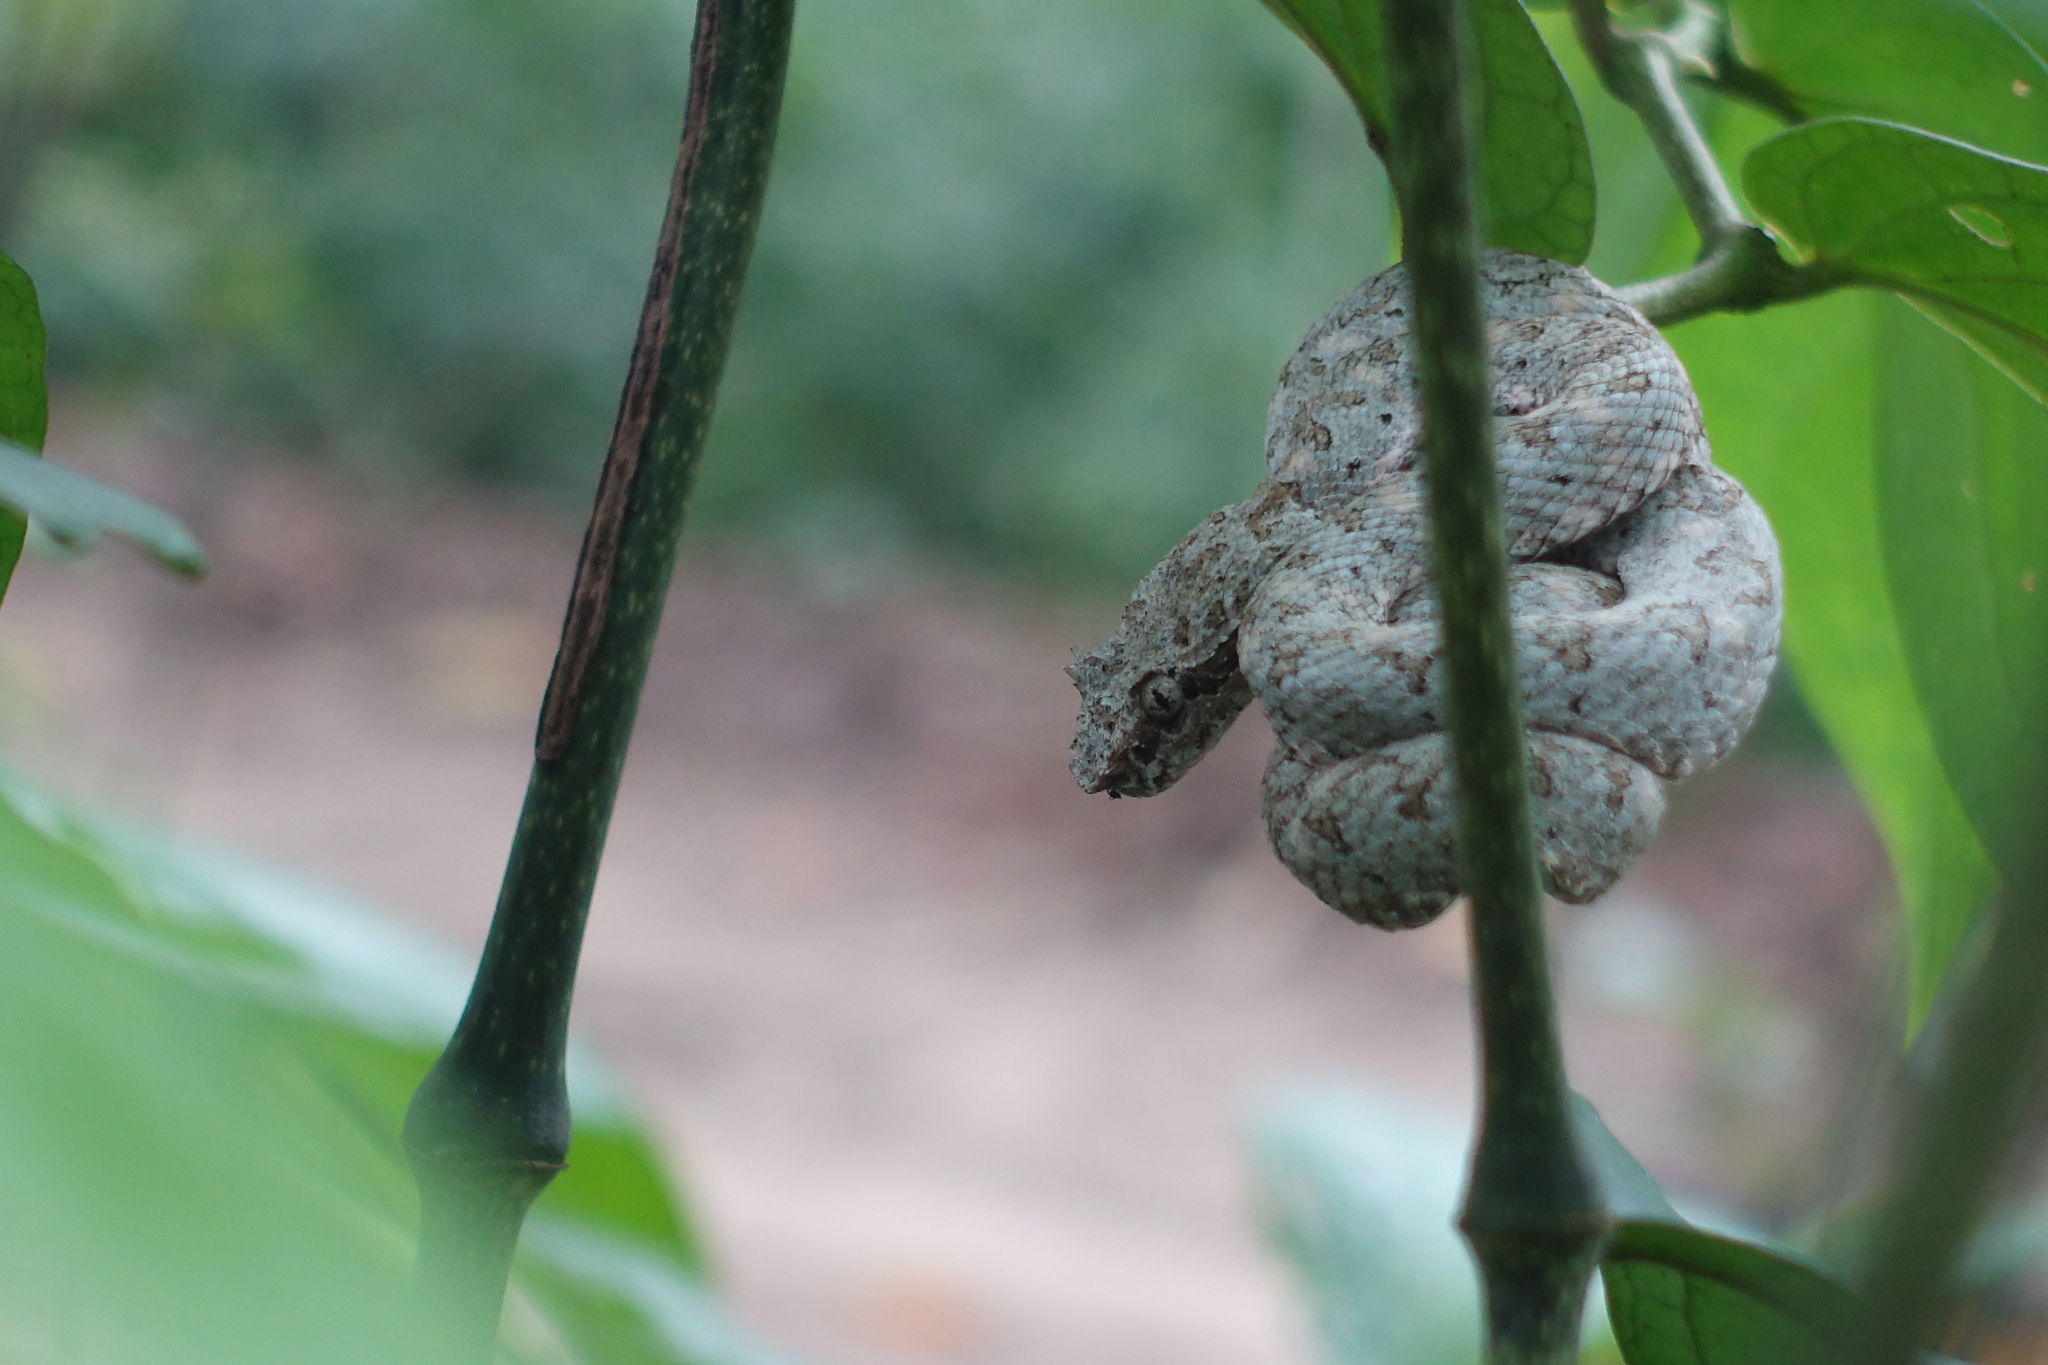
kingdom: Animalia
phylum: Chordata
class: Squamata
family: Viperidae
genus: Bothriechis
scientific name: Bothriechis schlegelii
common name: Eyelash viper
